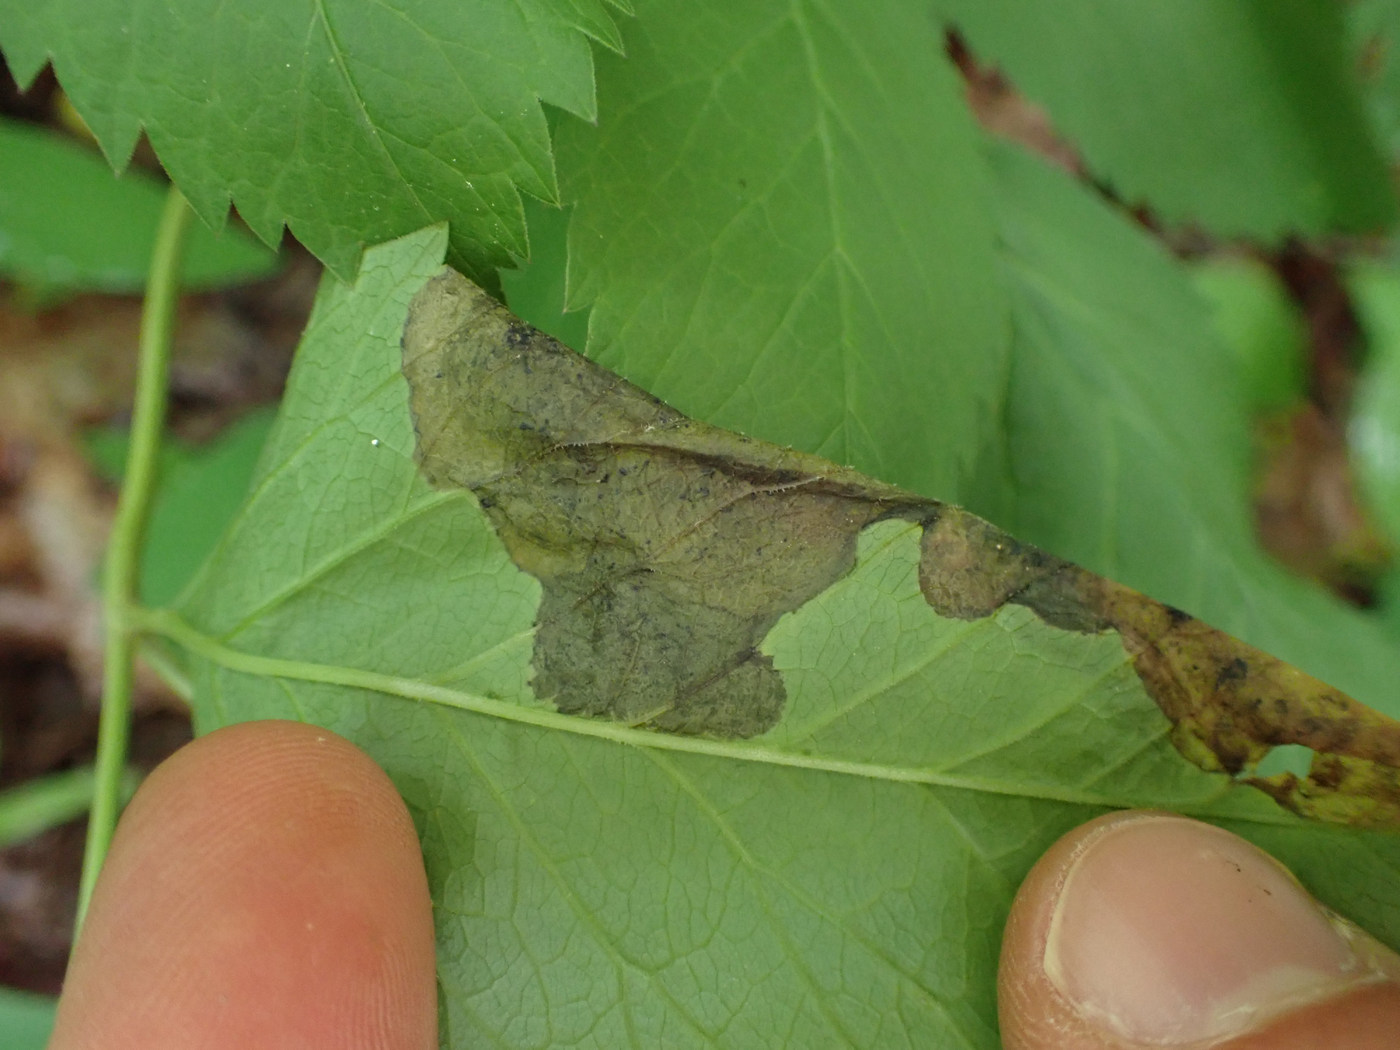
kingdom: Animalia
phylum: Arthropoda
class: Insecta
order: Diptera
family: Tephritidae
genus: Euleia
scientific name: Euleia fratria
